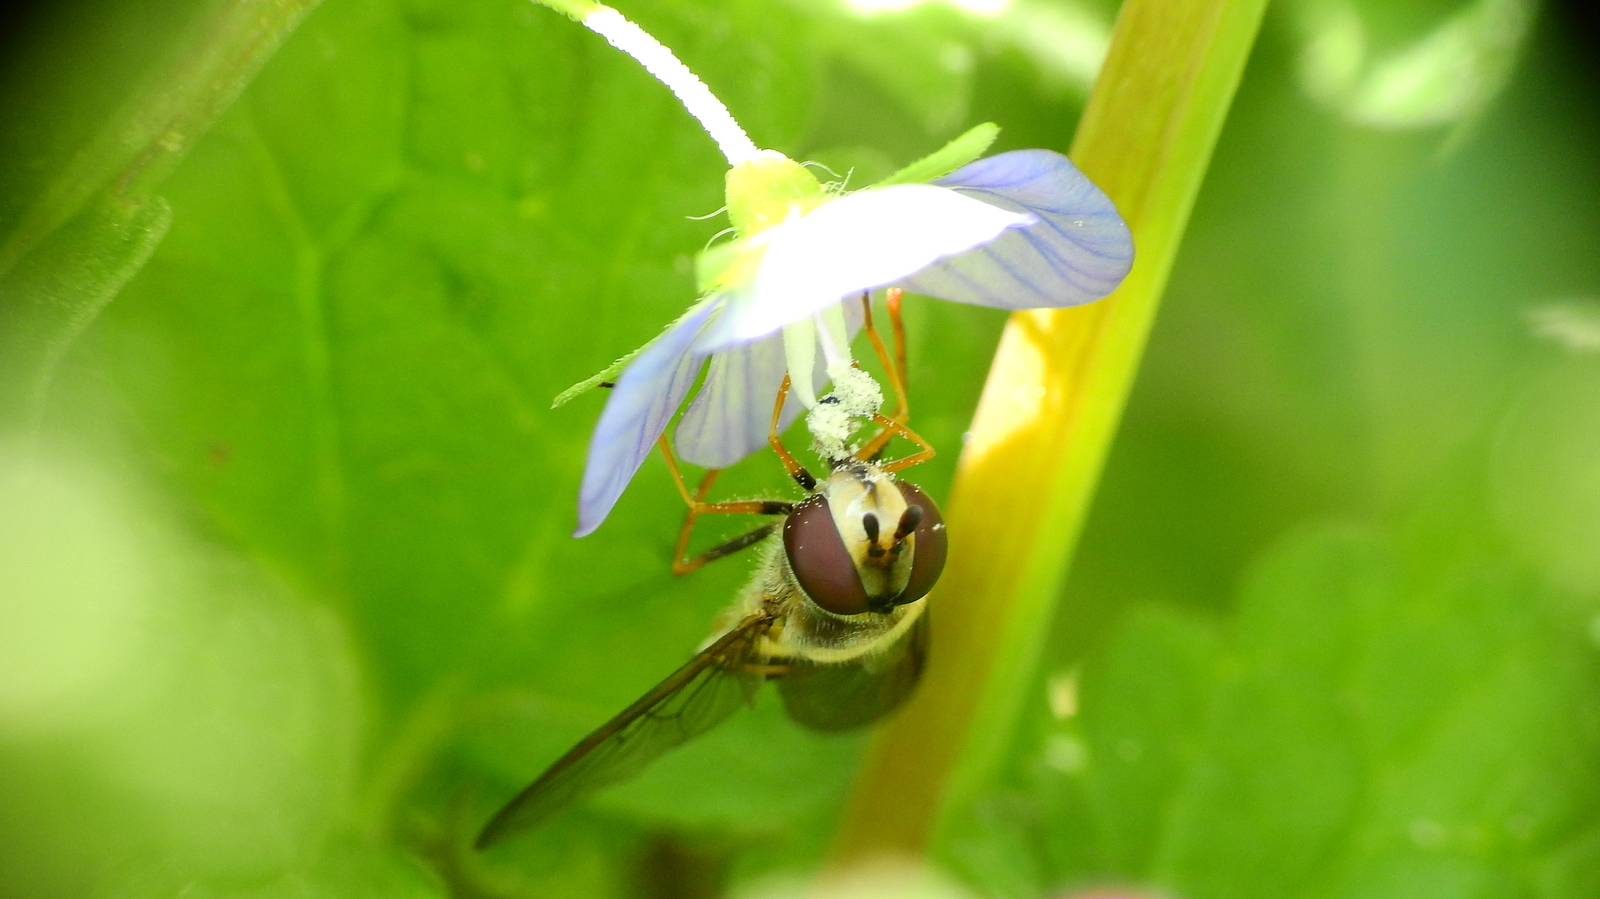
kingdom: Plantae
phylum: Tracheophyta
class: Magnoliopsida
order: Lamiales
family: Plantaginaceae
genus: Veronica
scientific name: Veronica persica
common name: Common field-speedwell
